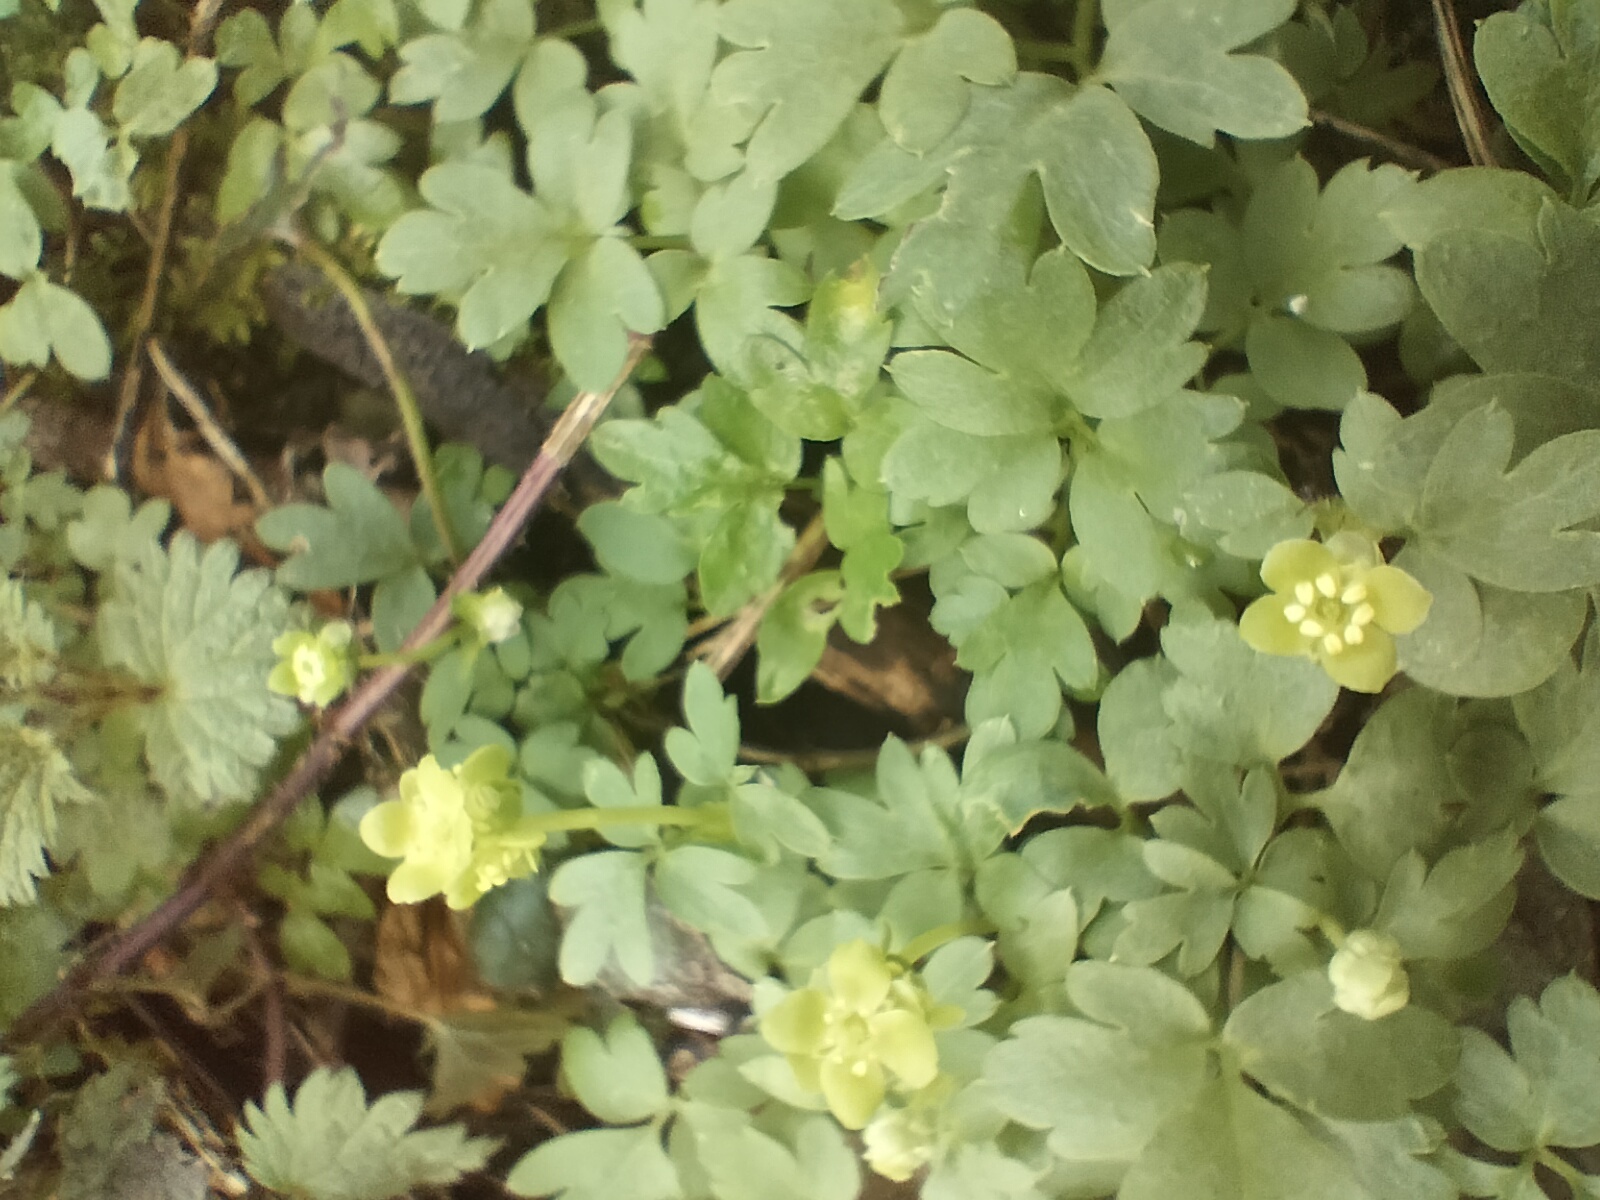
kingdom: Plantae
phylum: Tracheophyta
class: Magnoliopsida
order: Dipsacales
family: Viburnaceae
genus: Adoxa
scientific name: Adoxa moschatellina
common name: Moschatel
